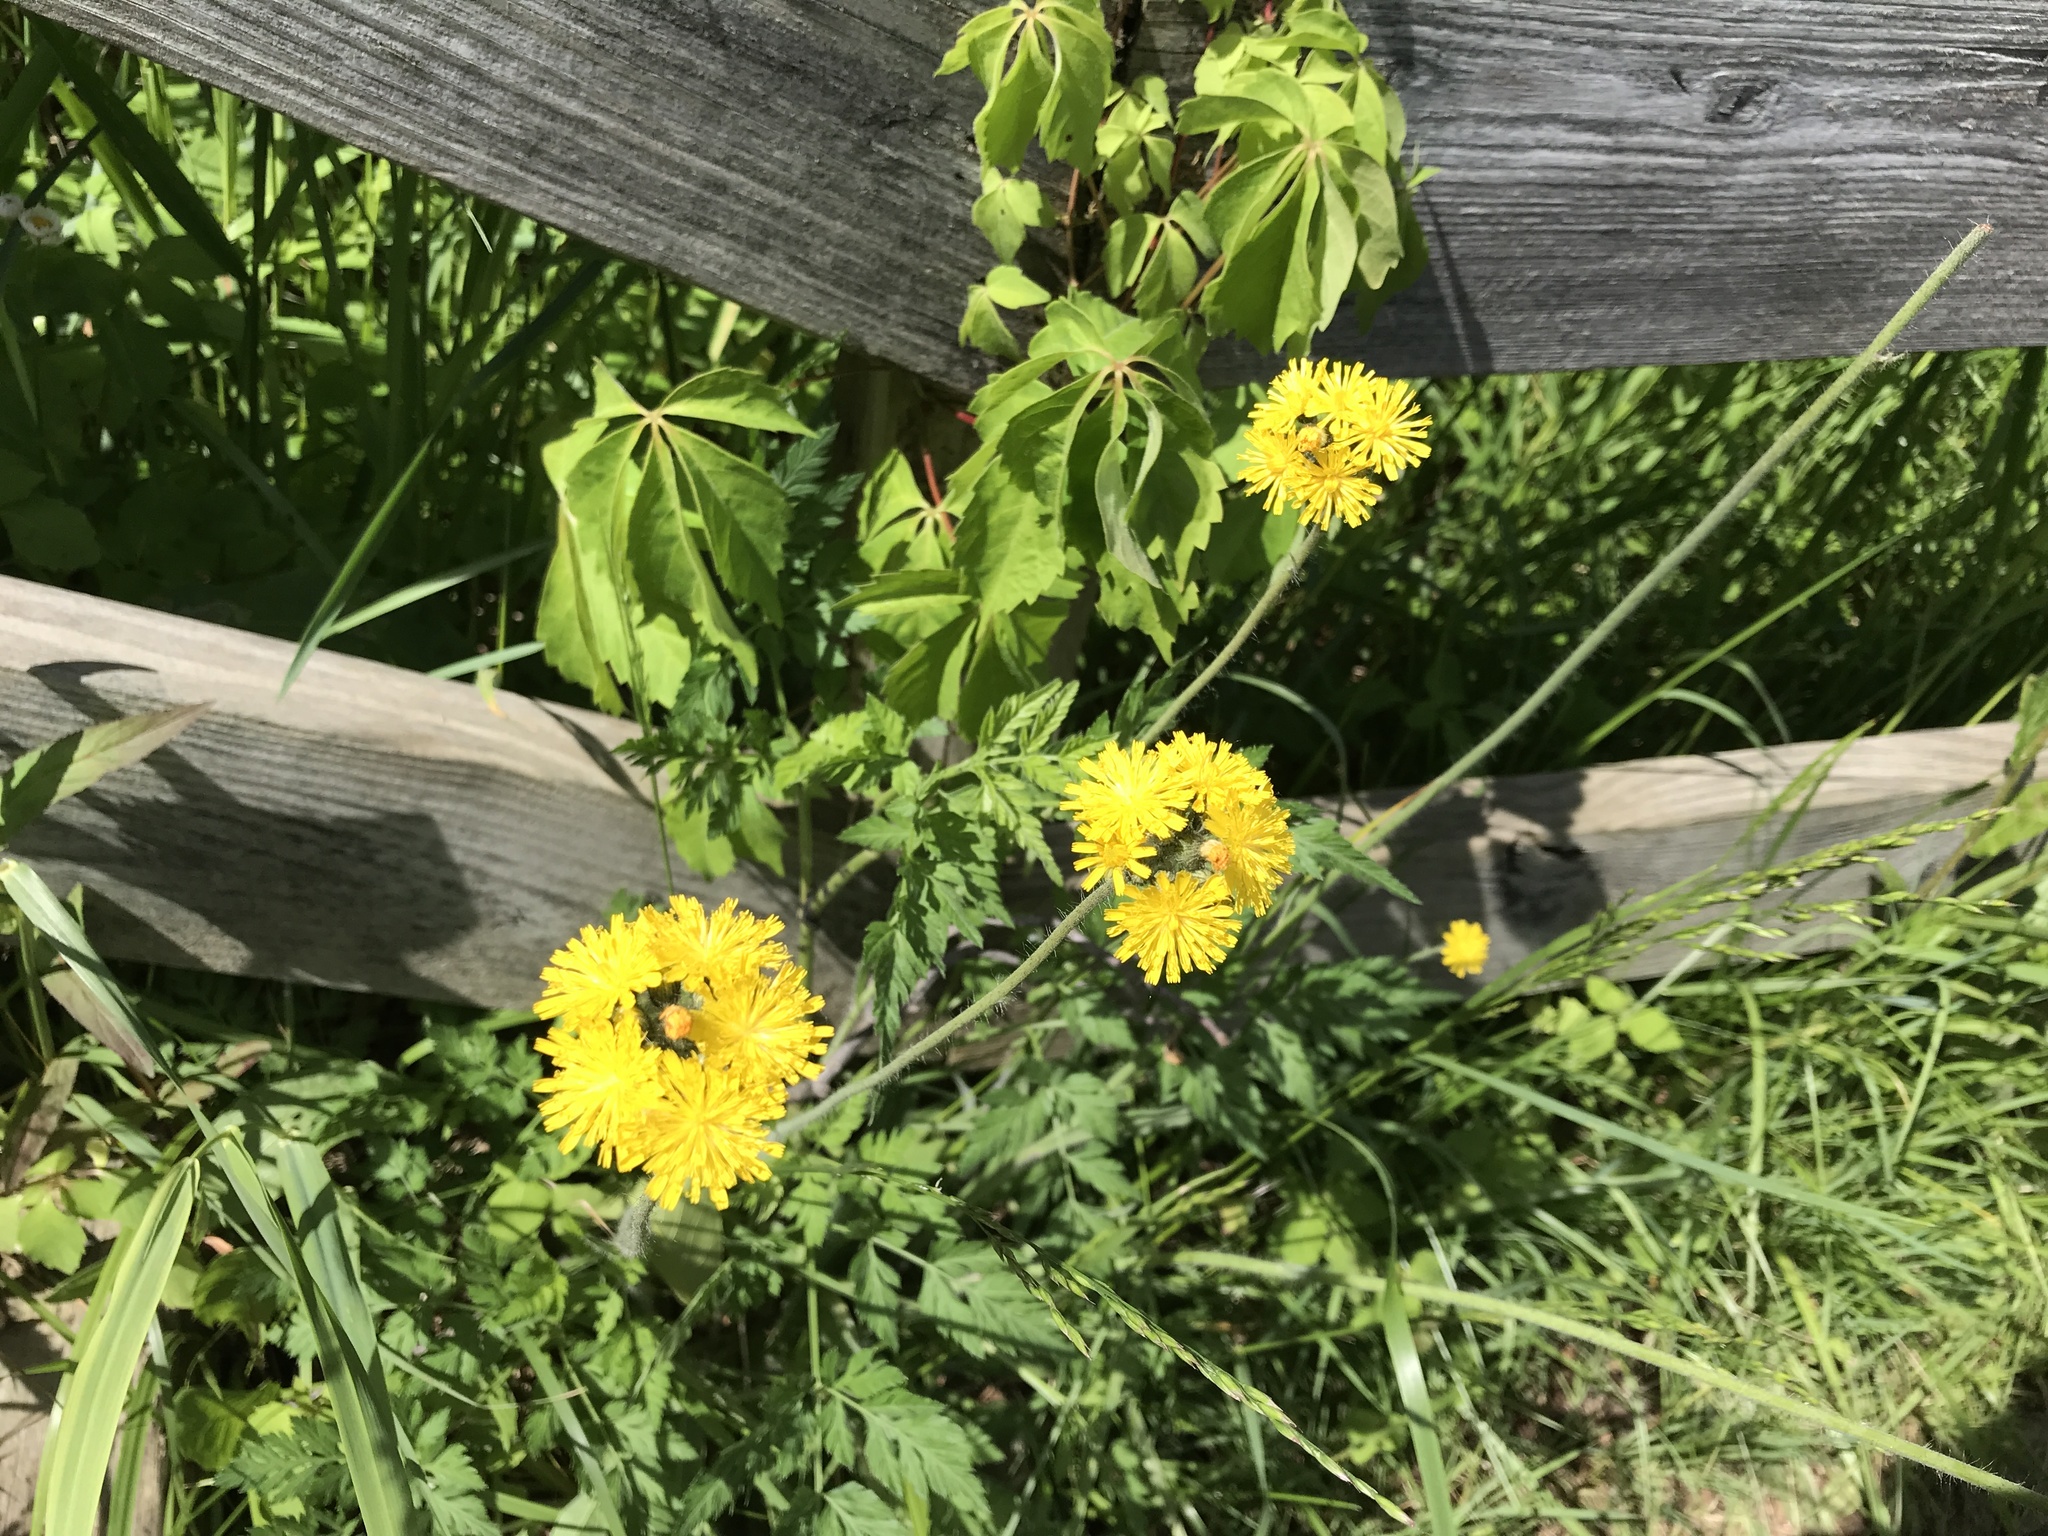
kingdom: Plantae
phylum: Tracheophyta
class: Magnoliopsida
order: Asterales
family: Asteraceae
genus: Pilosella
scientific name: Pilosella caespitosa
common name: Yellow fox-and-cubs
